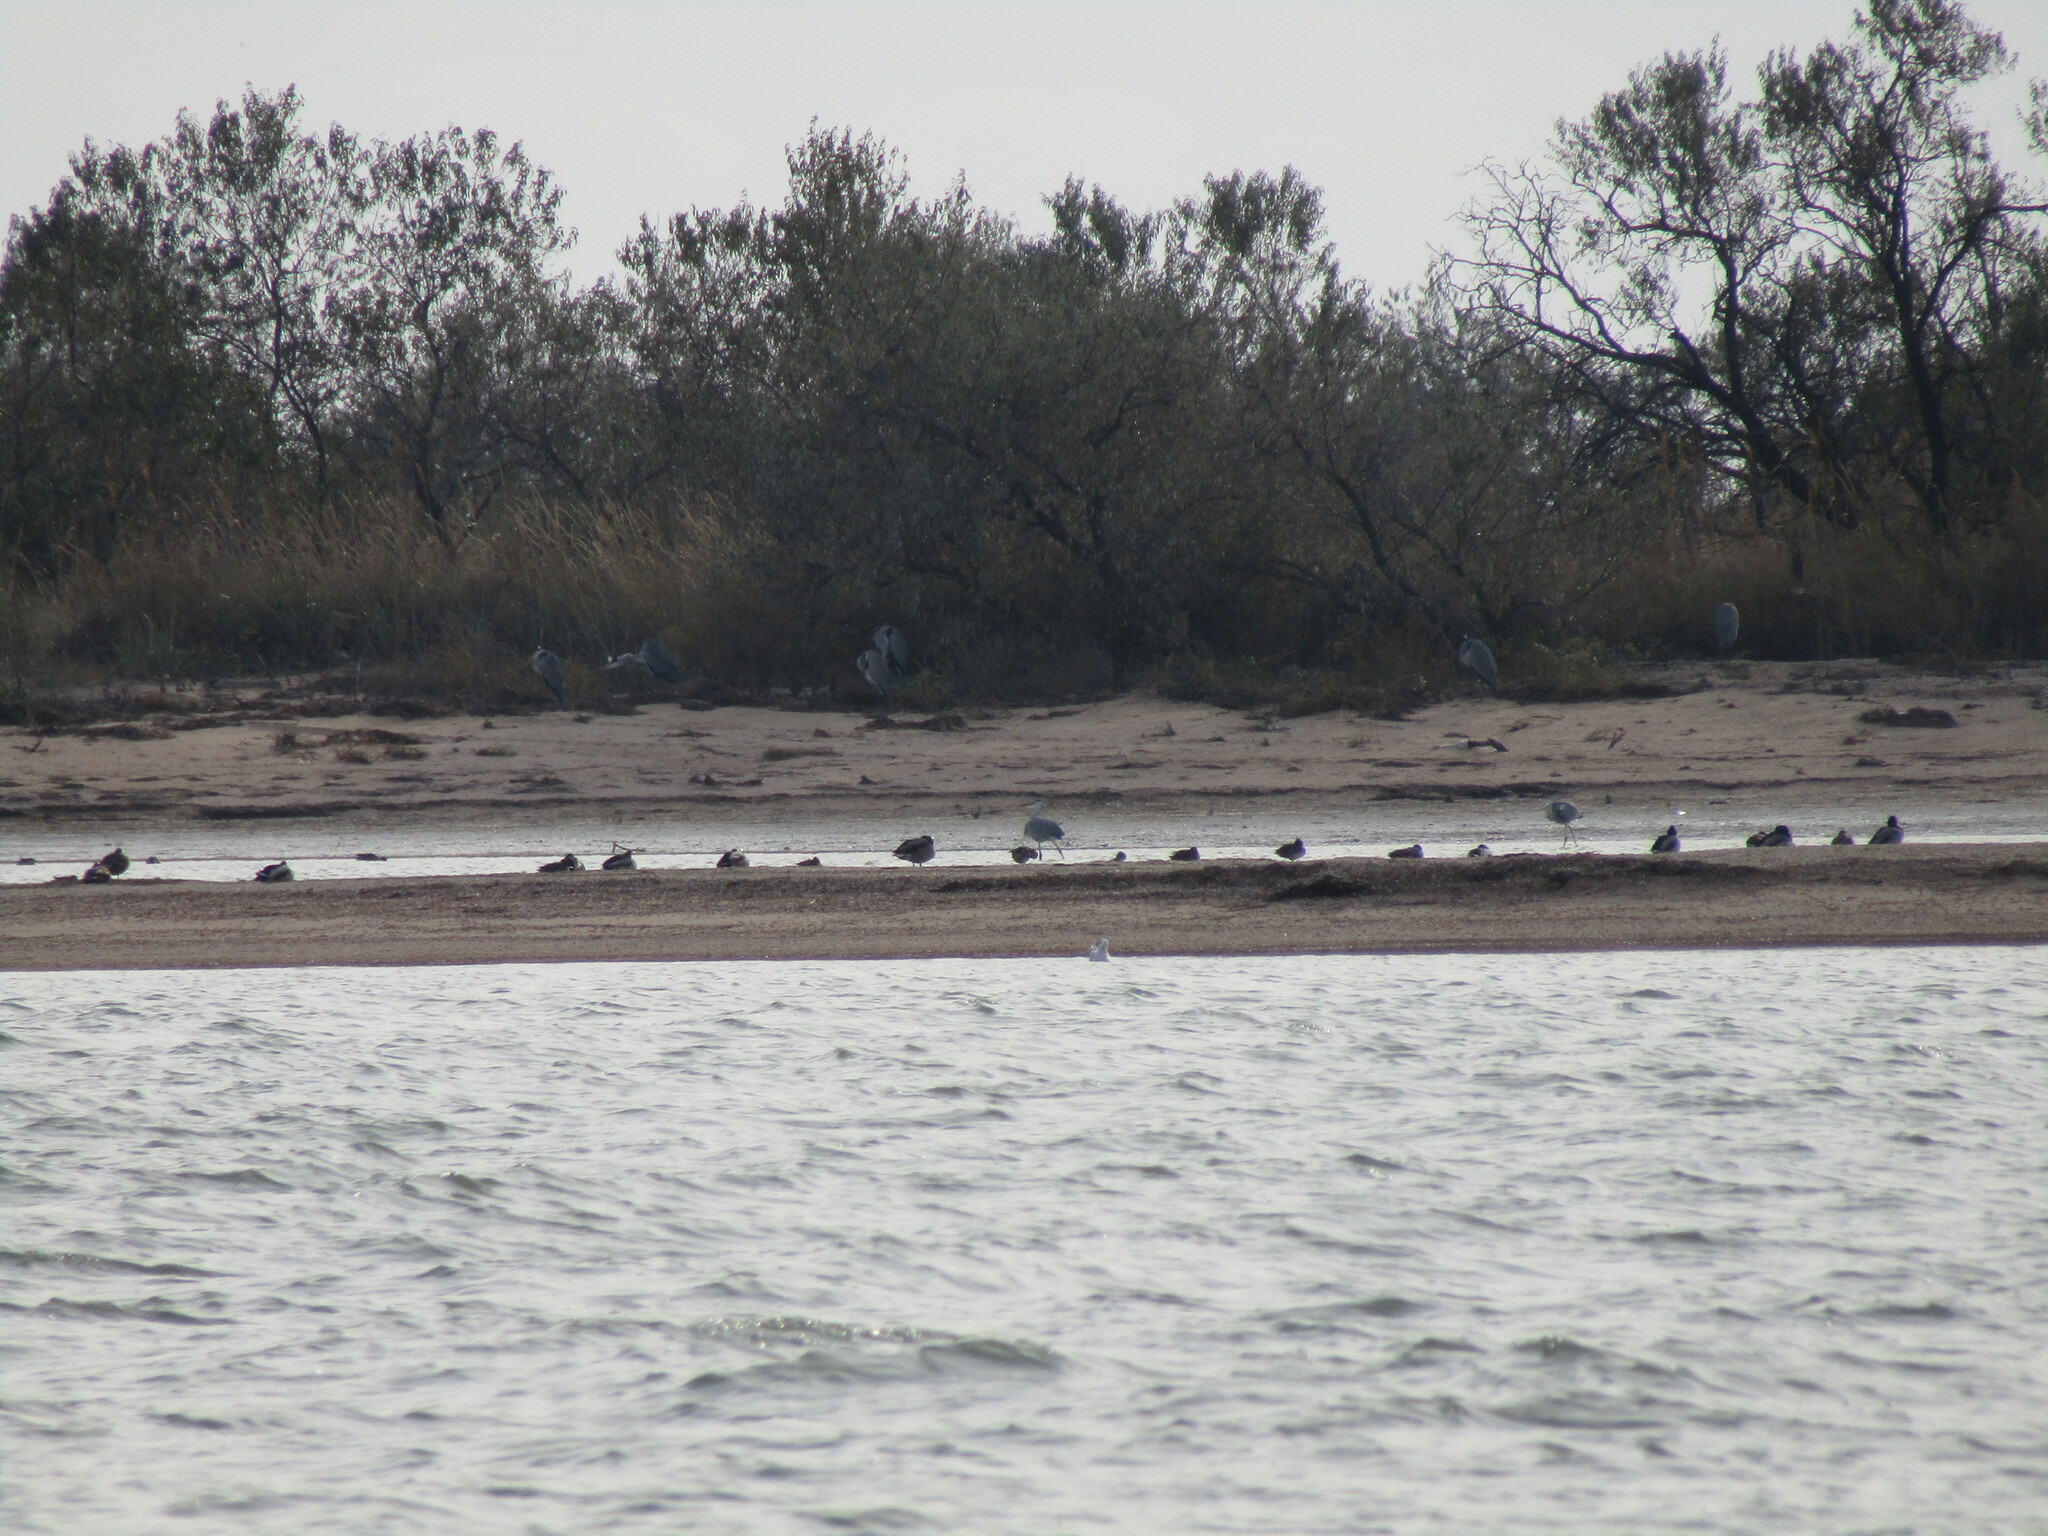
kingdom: Animalia
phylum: Chordata
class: Aves
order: Pelecaniformes
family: Ardeidae
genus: Ardea
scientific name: Ardea cinerea
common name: Grey heron
